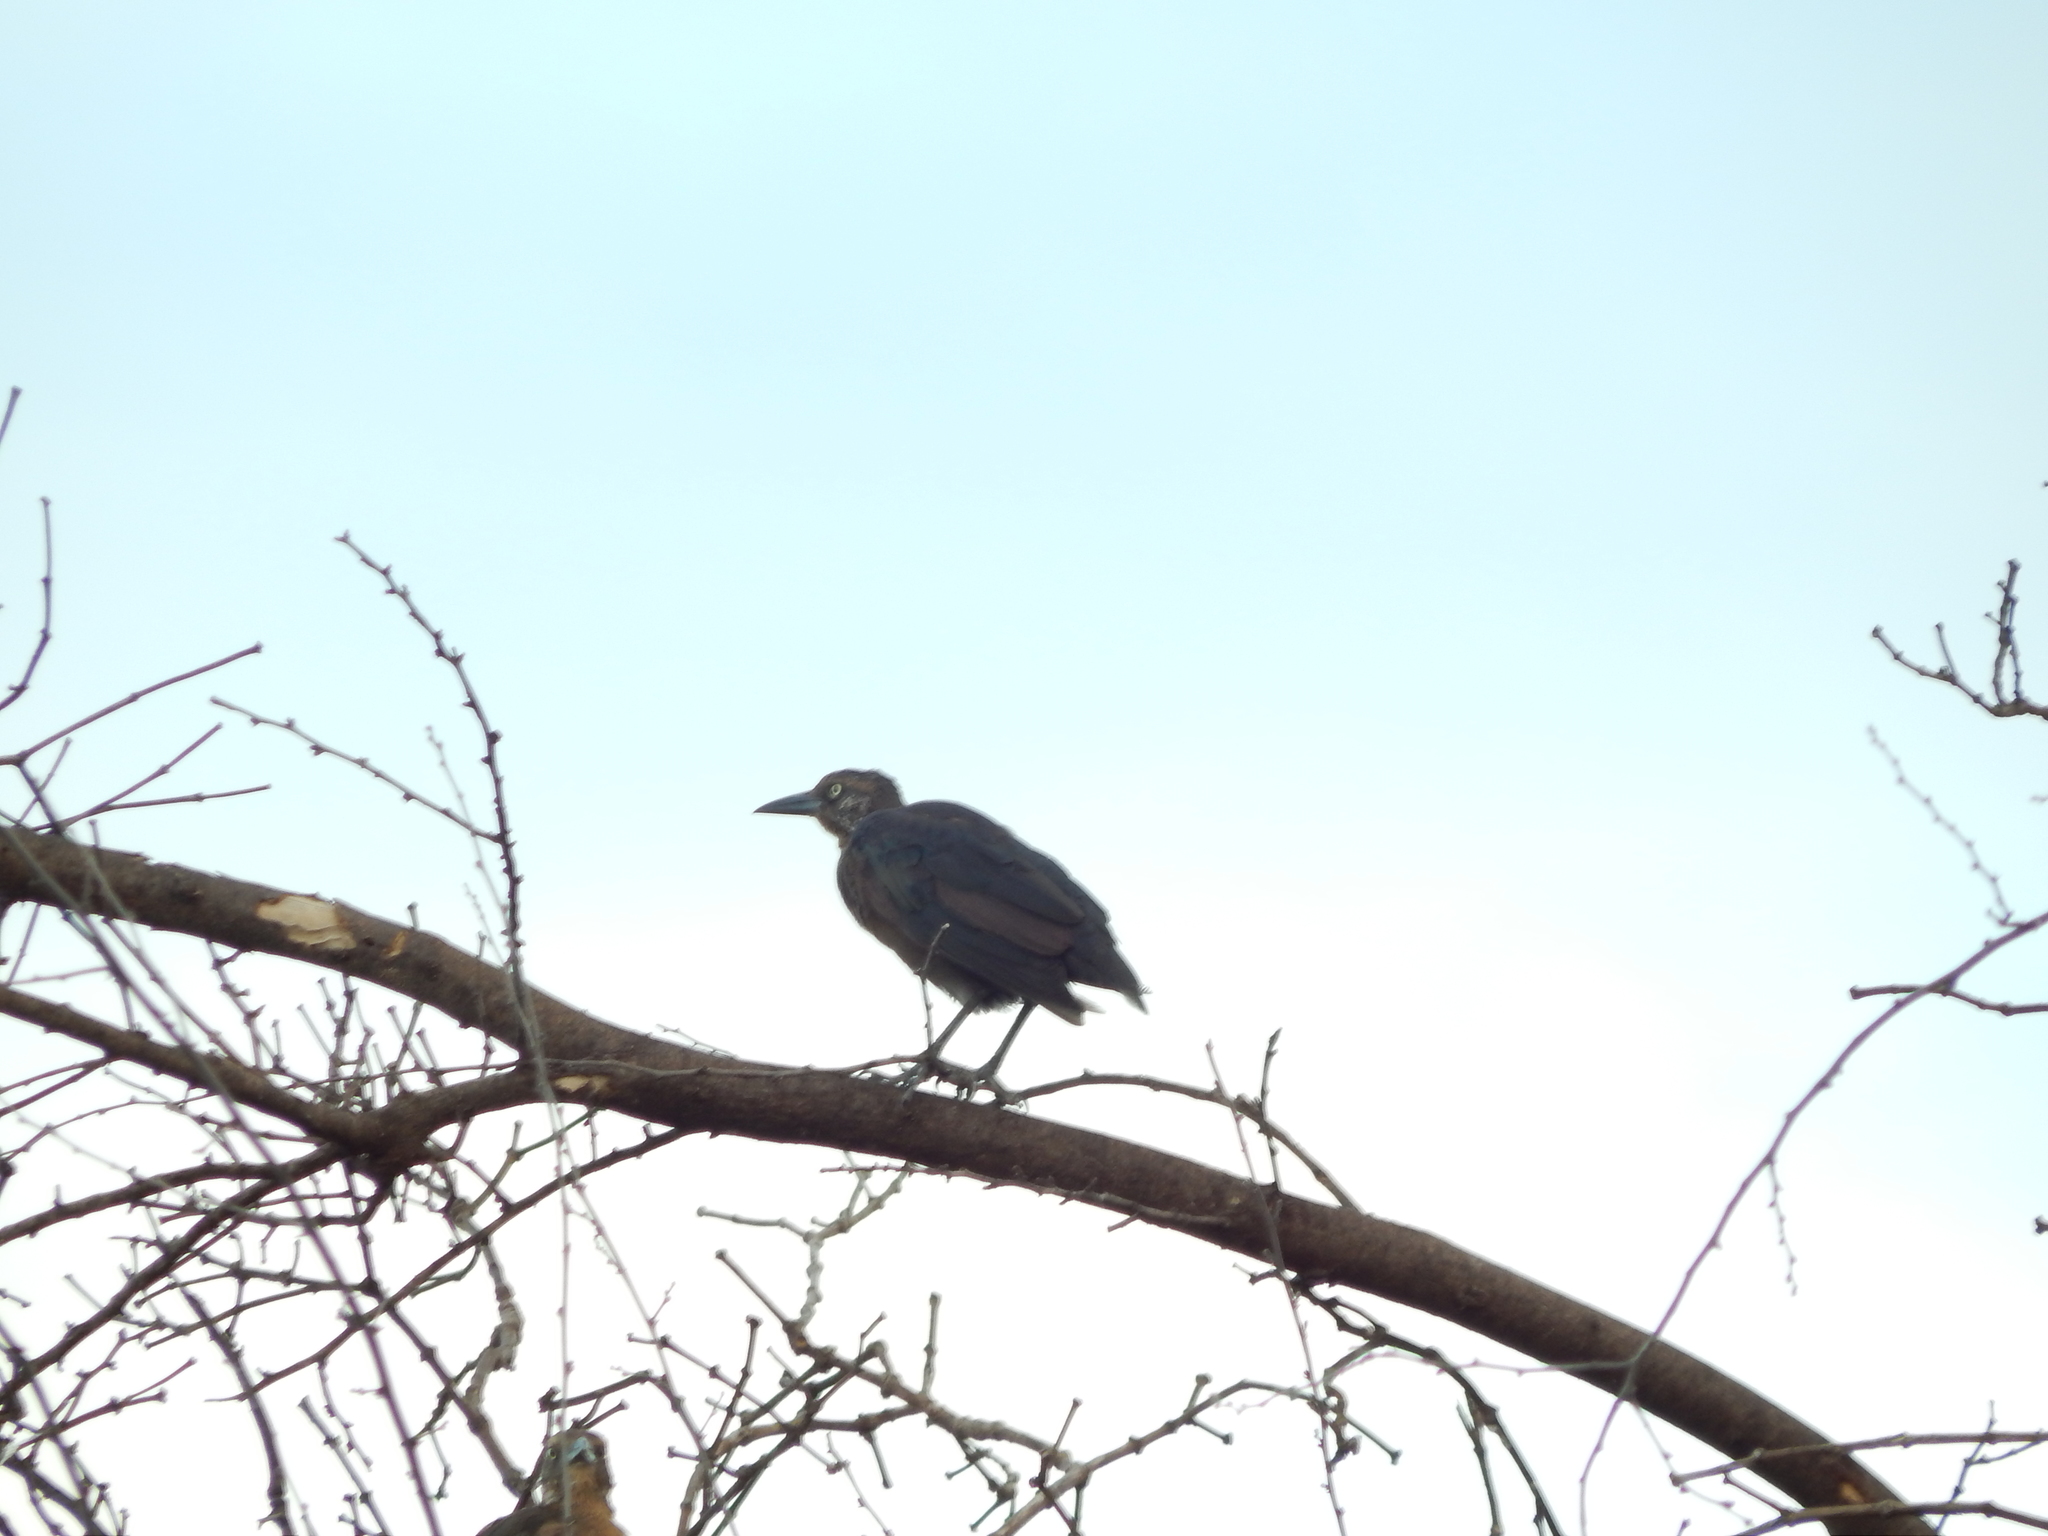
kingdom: Animalia
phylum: Chordata
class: Aves
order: Passeriformes
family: Icteridae
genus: Quiscalus
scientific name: Quiscalus mexicanus
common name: Great-tailed grackle
